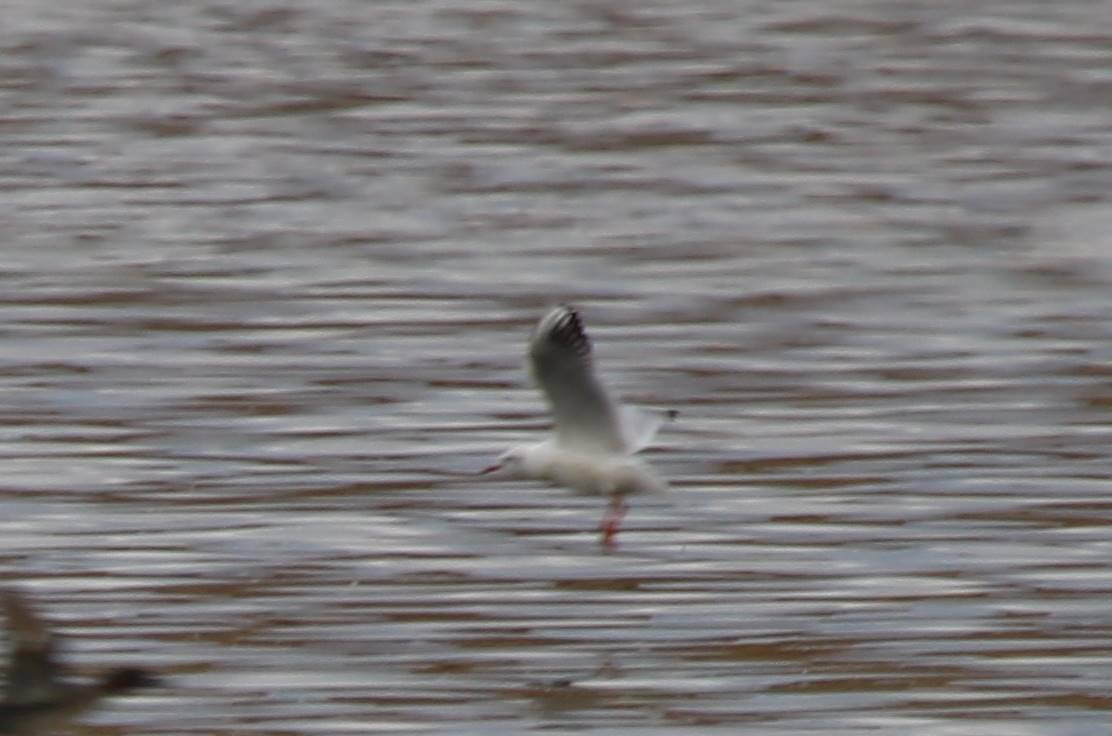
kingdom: Animalia
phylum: Chordata
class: Aves
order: Charadriiformes
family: Laridae
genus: Chroicocephalus
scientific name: Chroicocephalus ridibundus
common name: Black-headed gull
